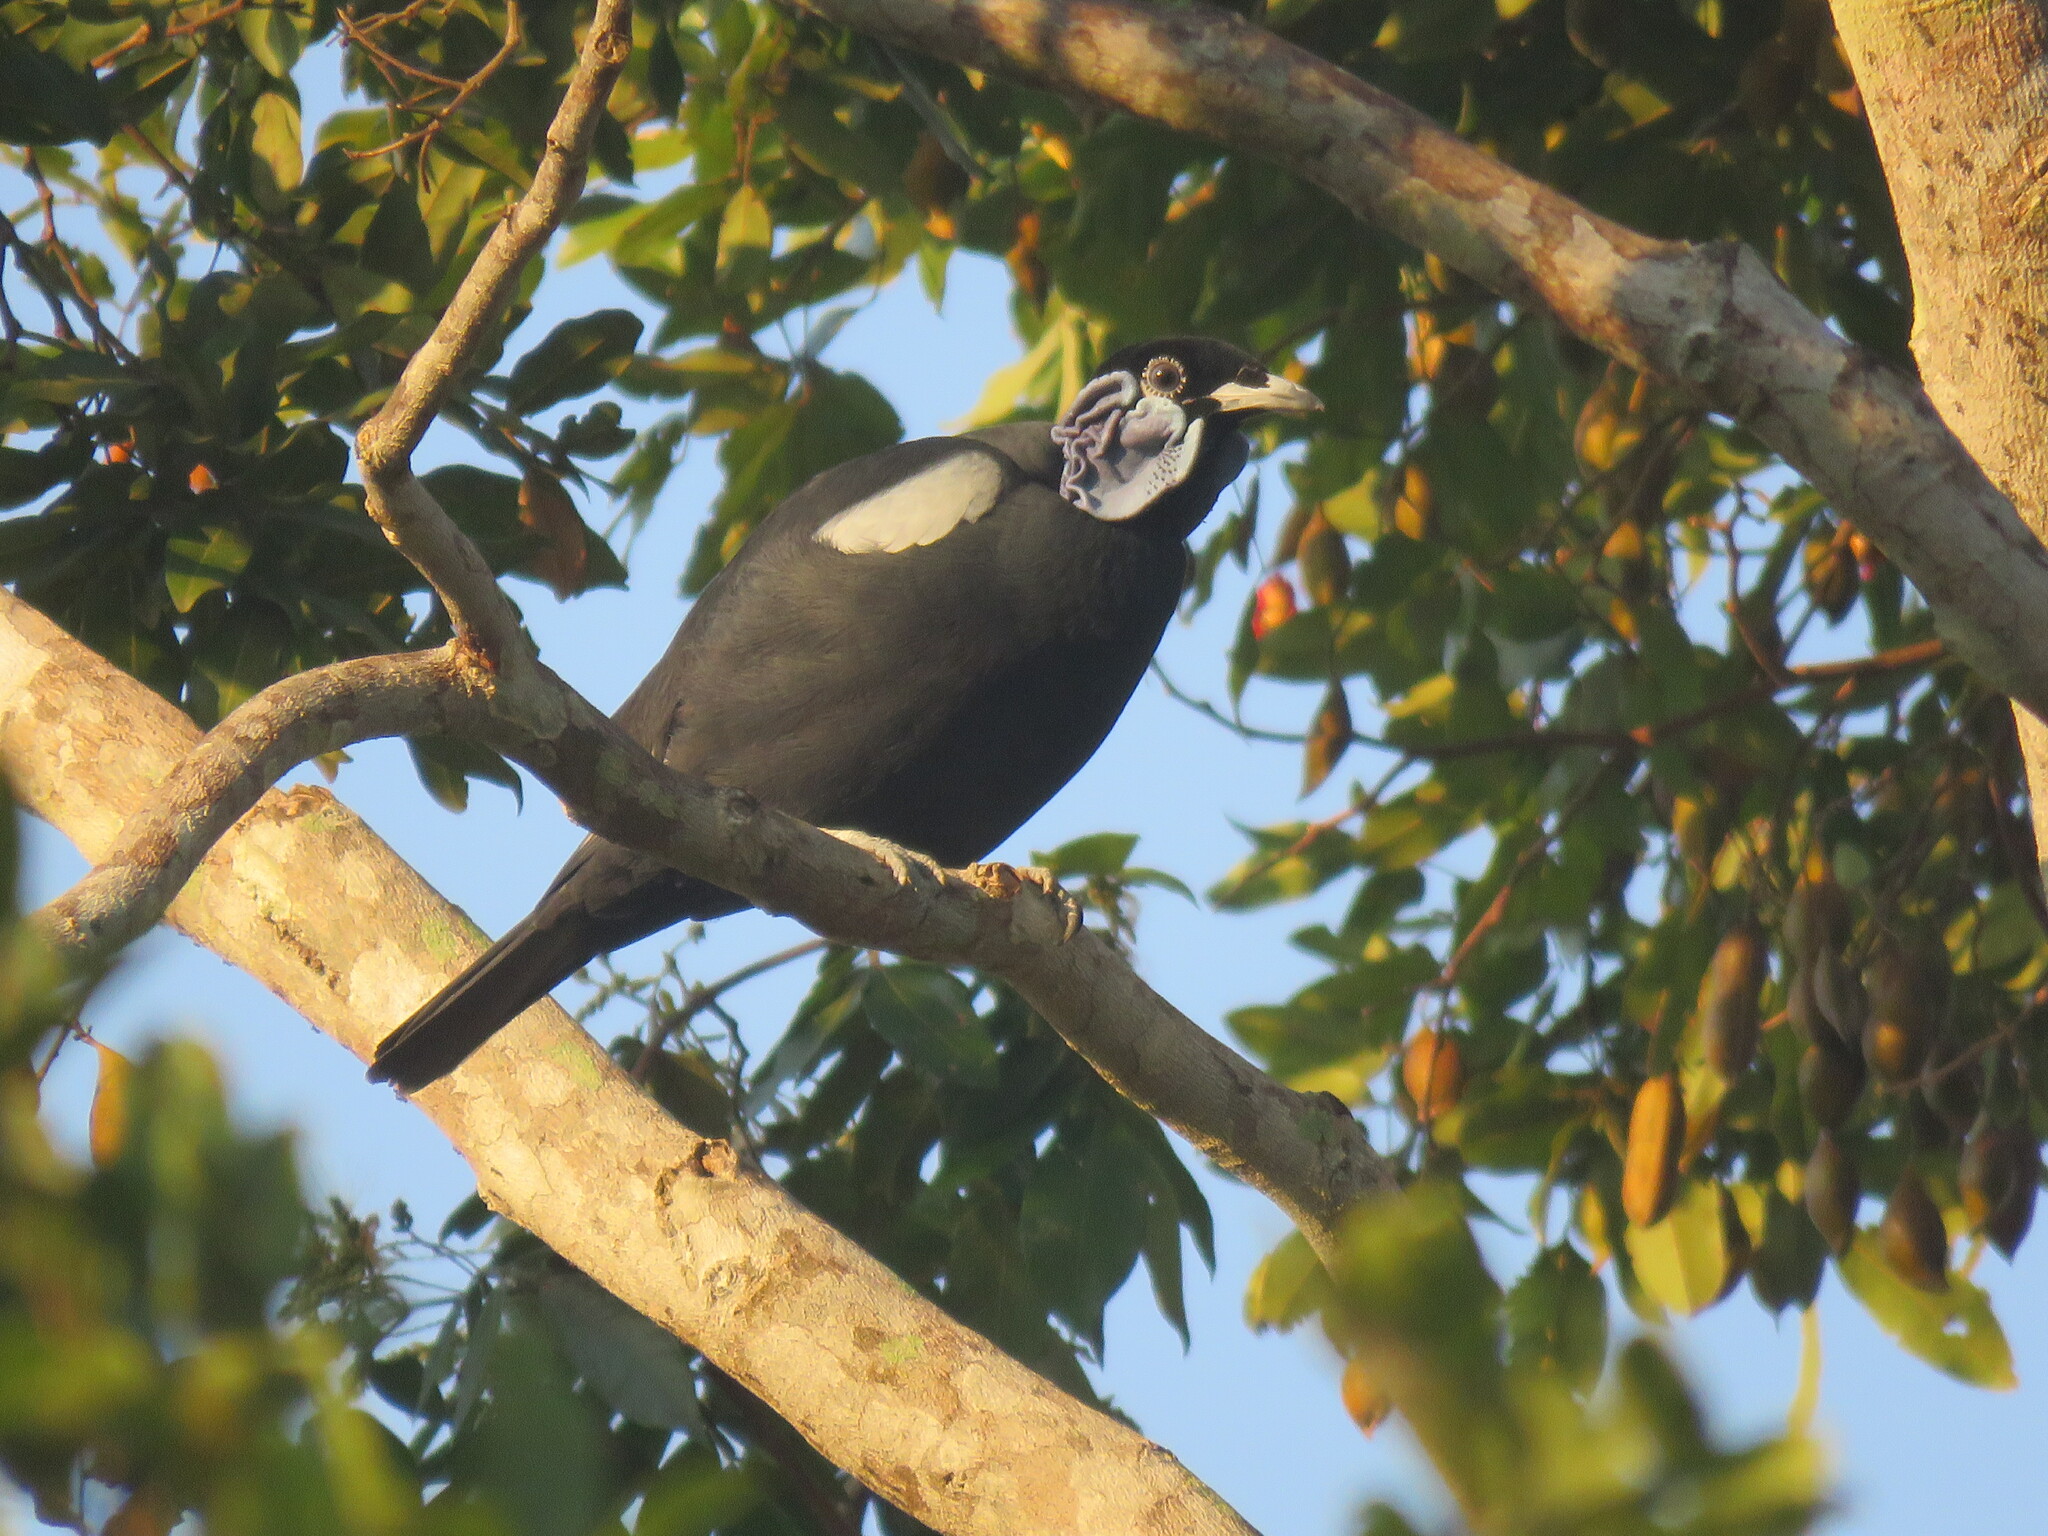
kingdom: Animalia
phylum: Chordata
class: Aves
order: Passeriformes
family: Cotingidae
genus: Gymnoderus
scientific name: Gymnoderus foetidus
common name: Bare-necked fruitcrow
